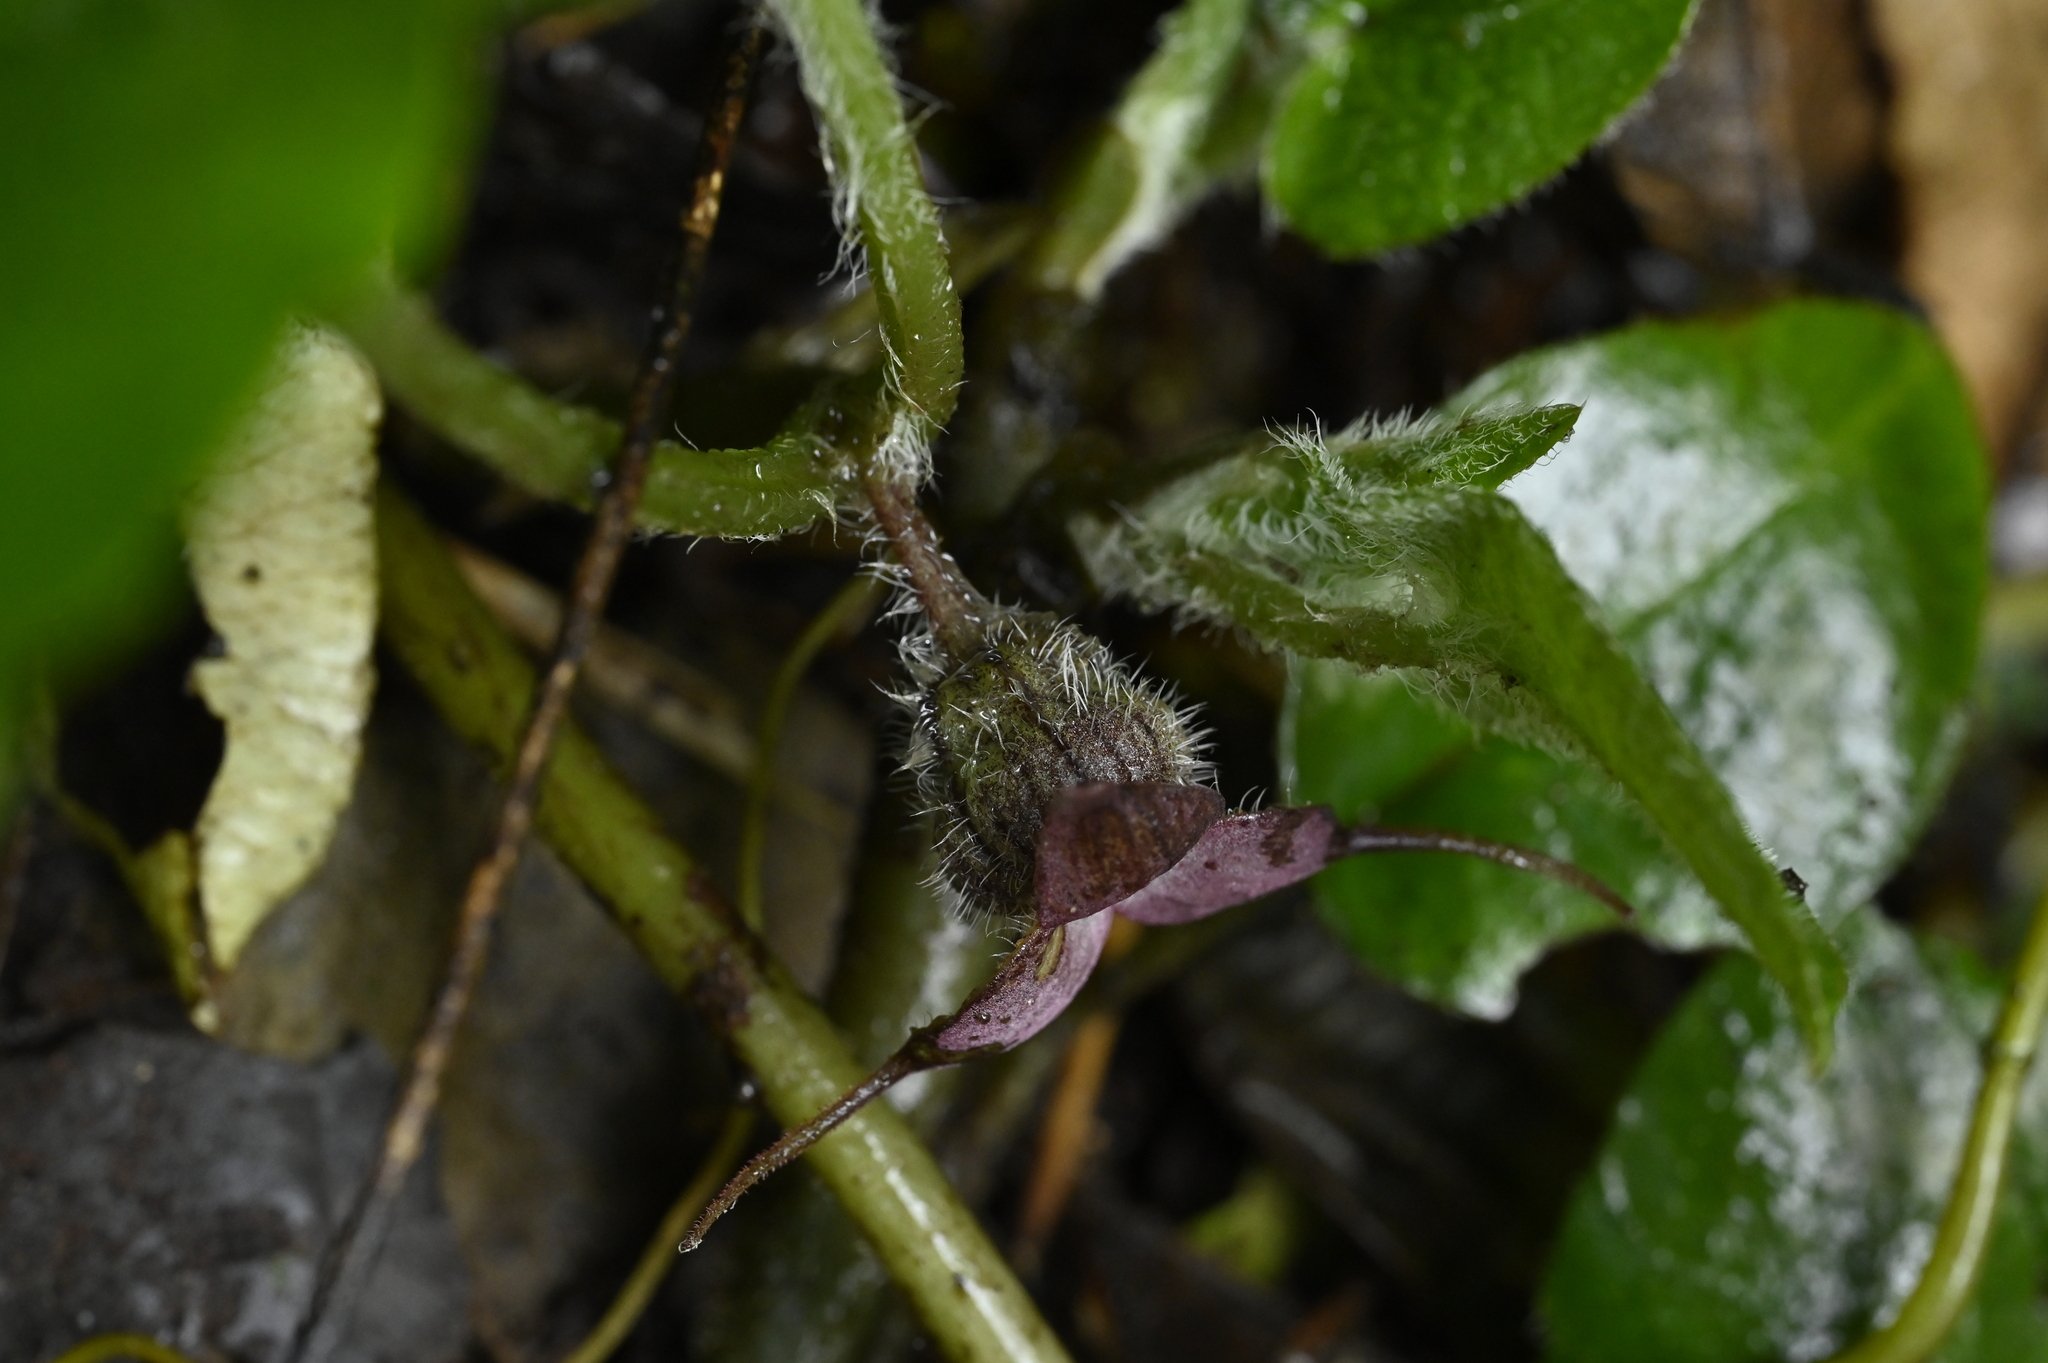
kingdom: Plantae
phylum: Tracheophyta
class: Magnoliopsida
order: Piperales
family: Aristolochiaceae
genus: Asarum
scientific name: Asarum caudigerum
